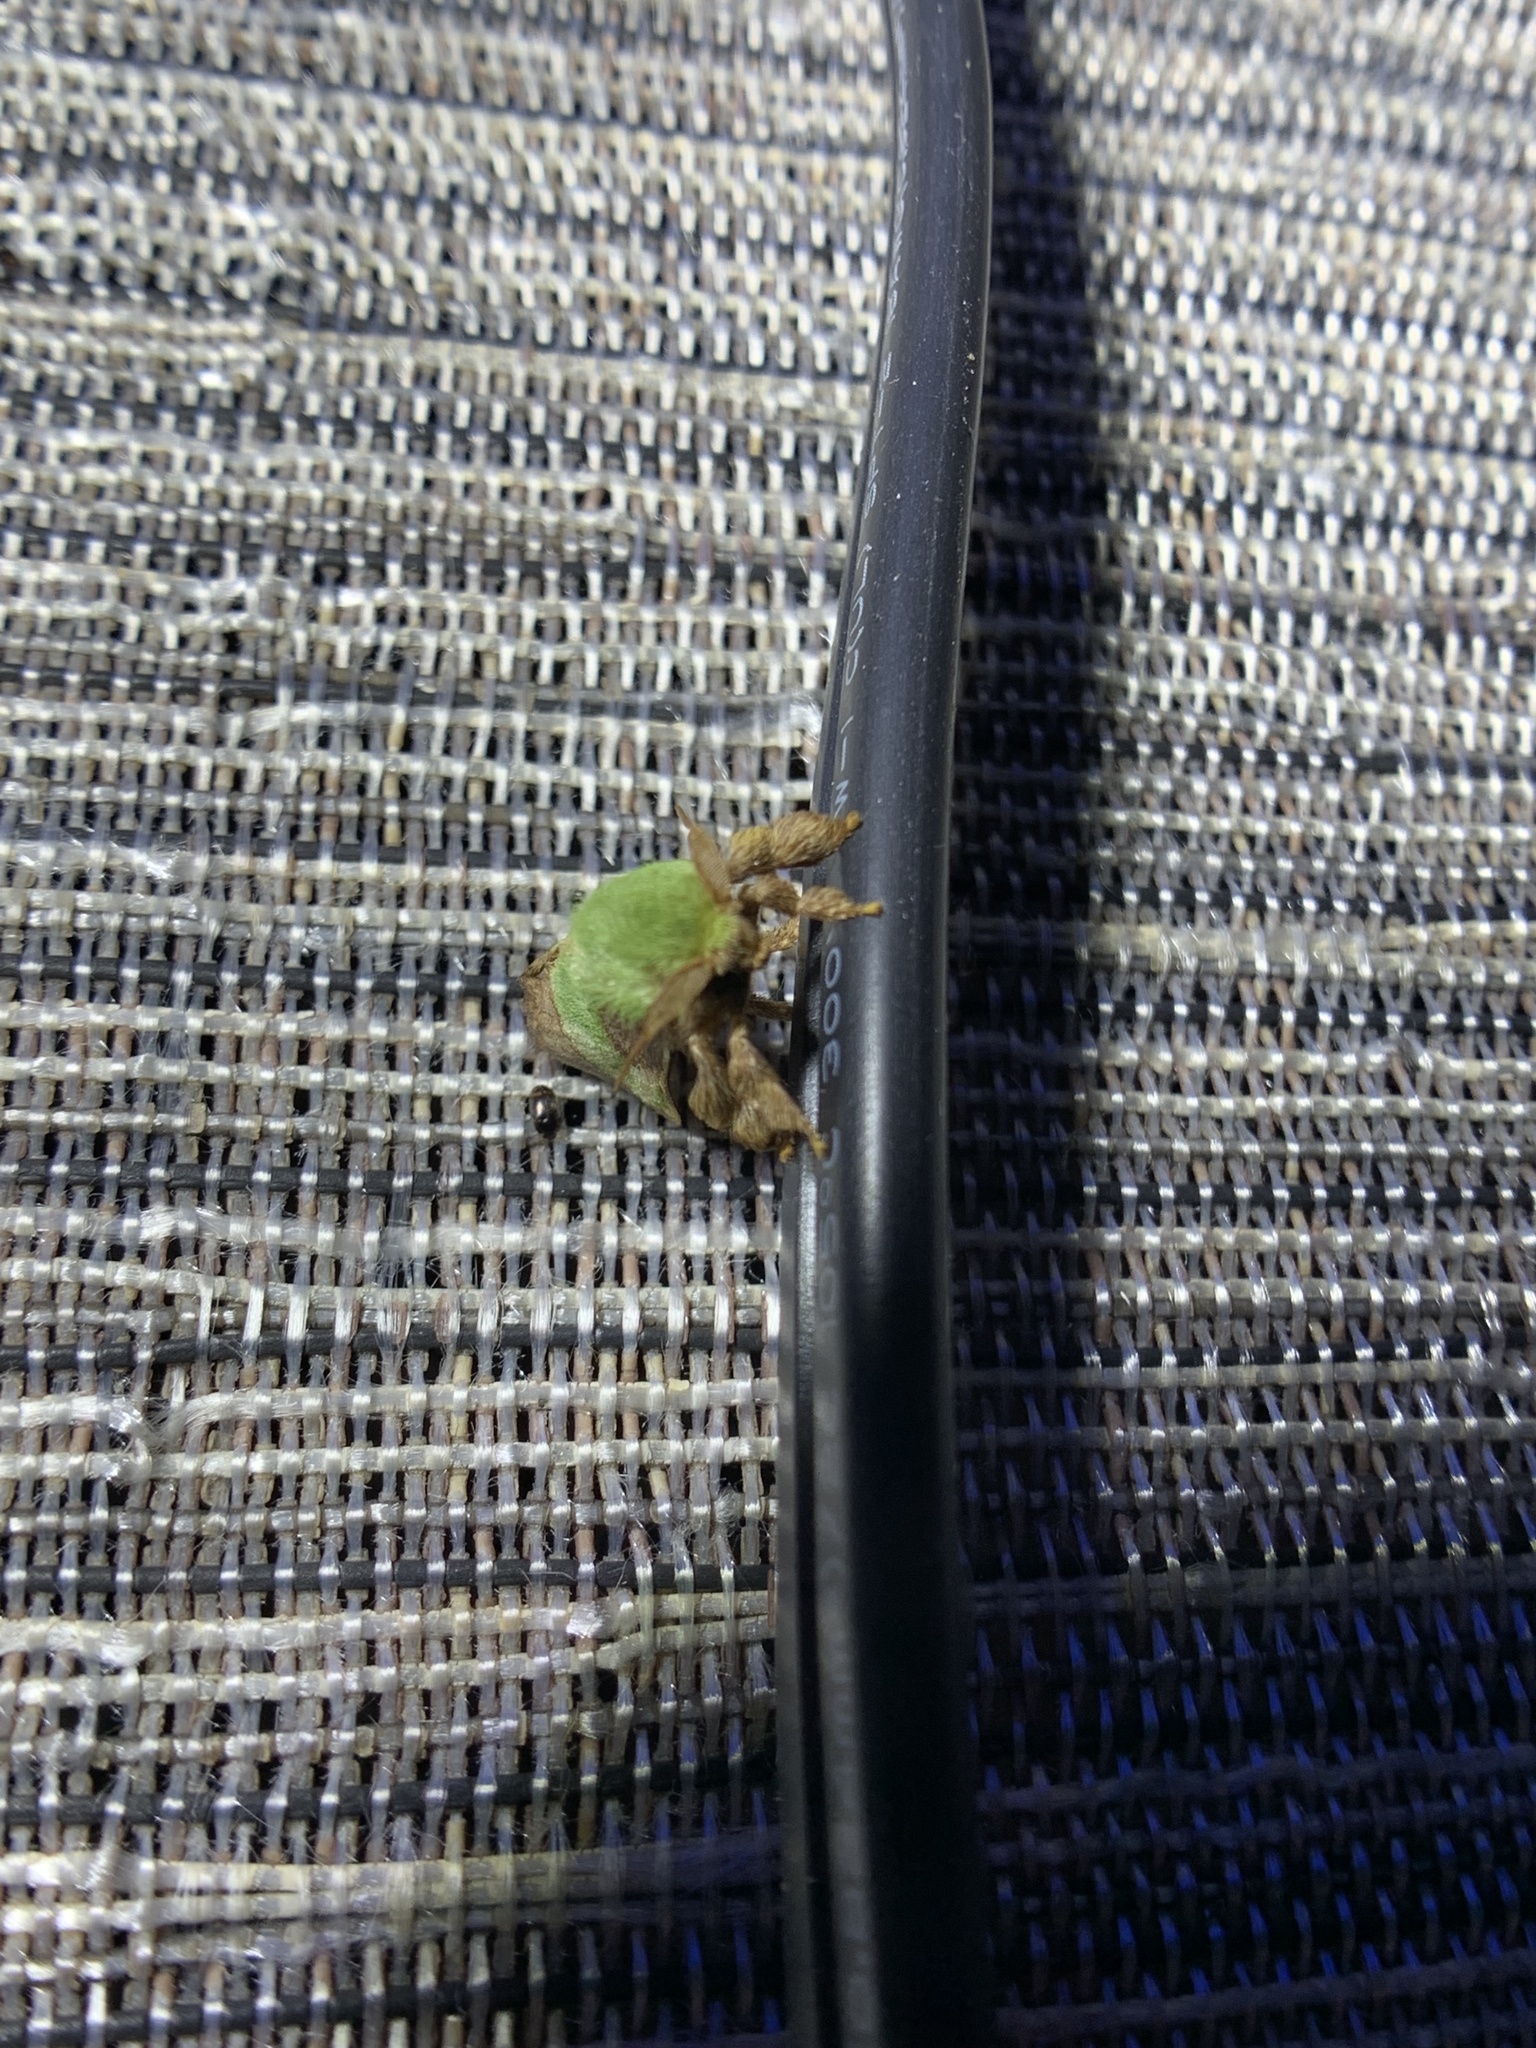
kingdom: Animalia
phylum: Arthropoda
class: Insecta
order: Lepidoptera
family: Limacodidae
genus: Parasa
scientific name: Parasa chloris
